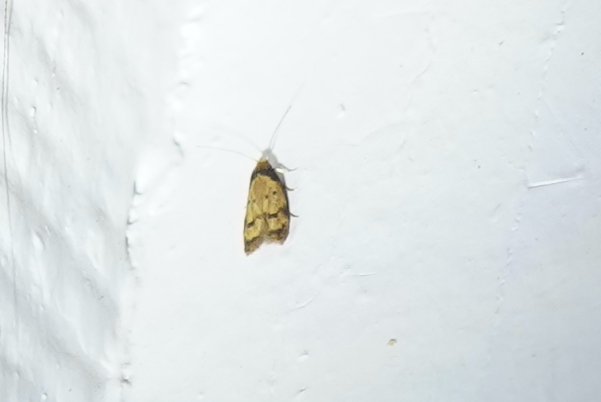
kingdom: Animalia
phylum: Arthropoda
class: Insecta
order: Lepidoptera
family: Autostichidae
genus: Gerdana
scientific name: Gerdana caritella
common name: Gerdana moth
